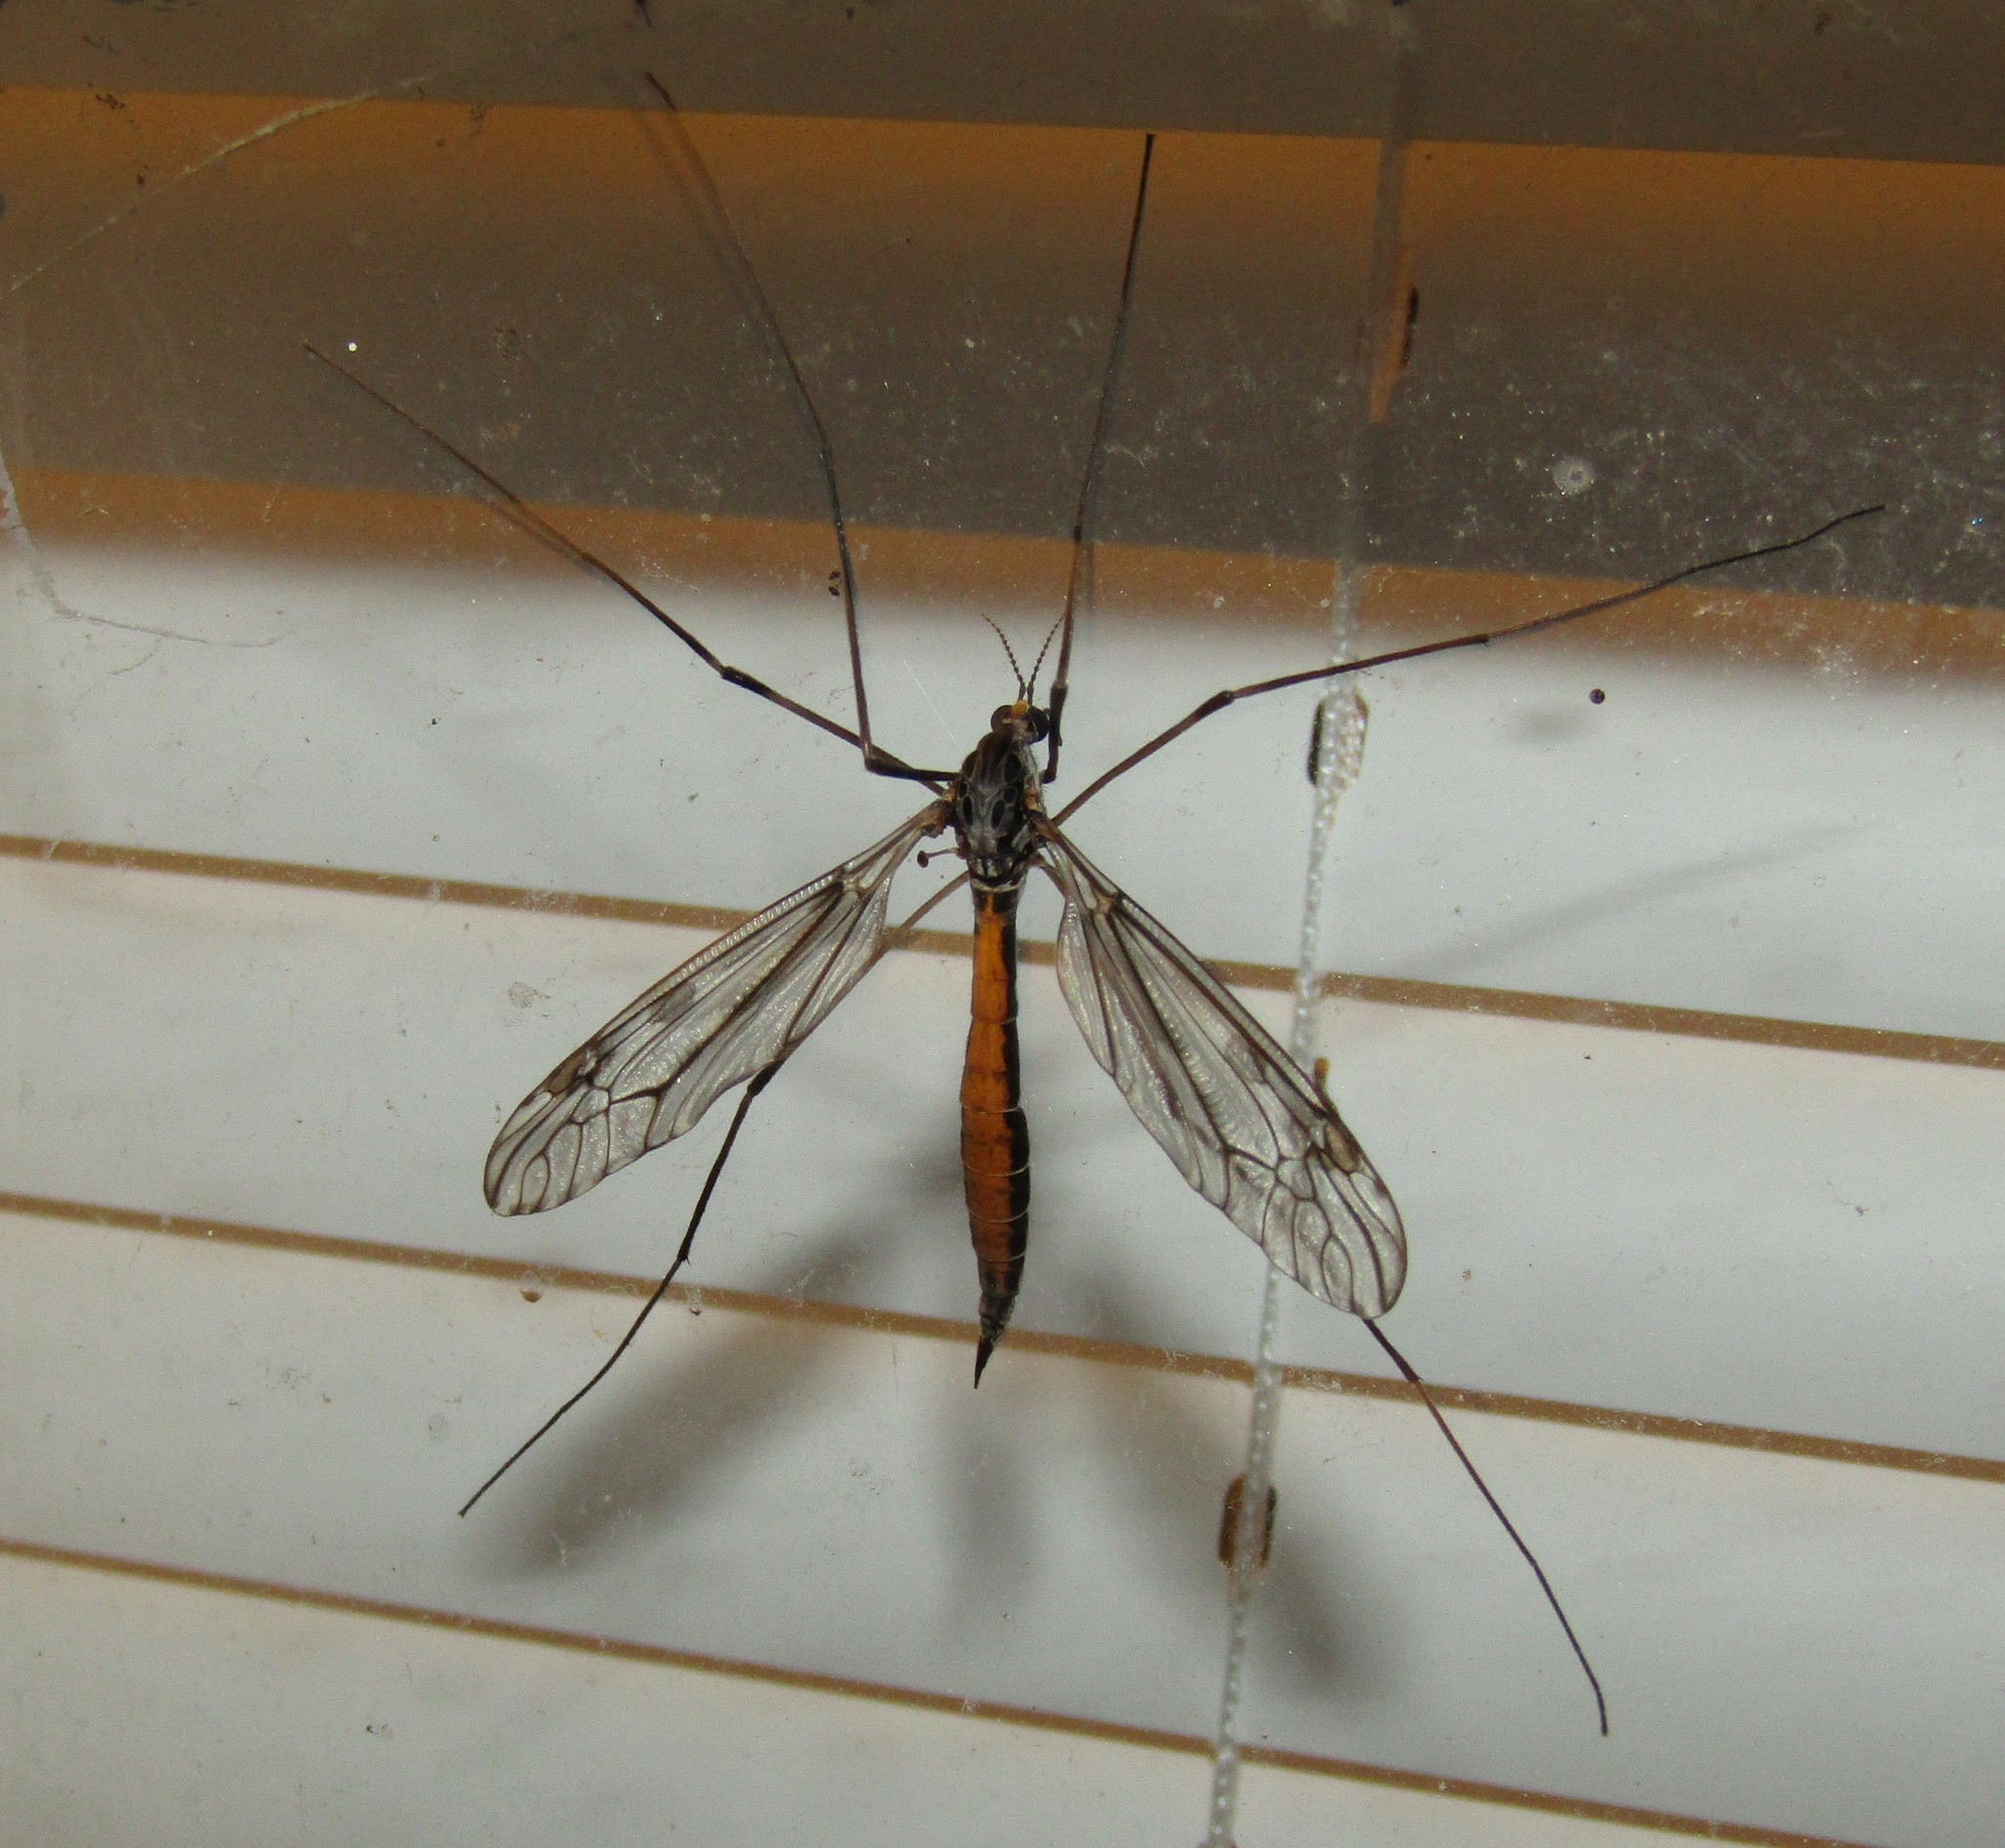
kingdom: Animalia
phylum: Arthropoda
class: Insecta
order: Diptera
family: Tipulidae
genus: Tipula
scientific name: Tipula abdominalis
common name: Giant crane fly
